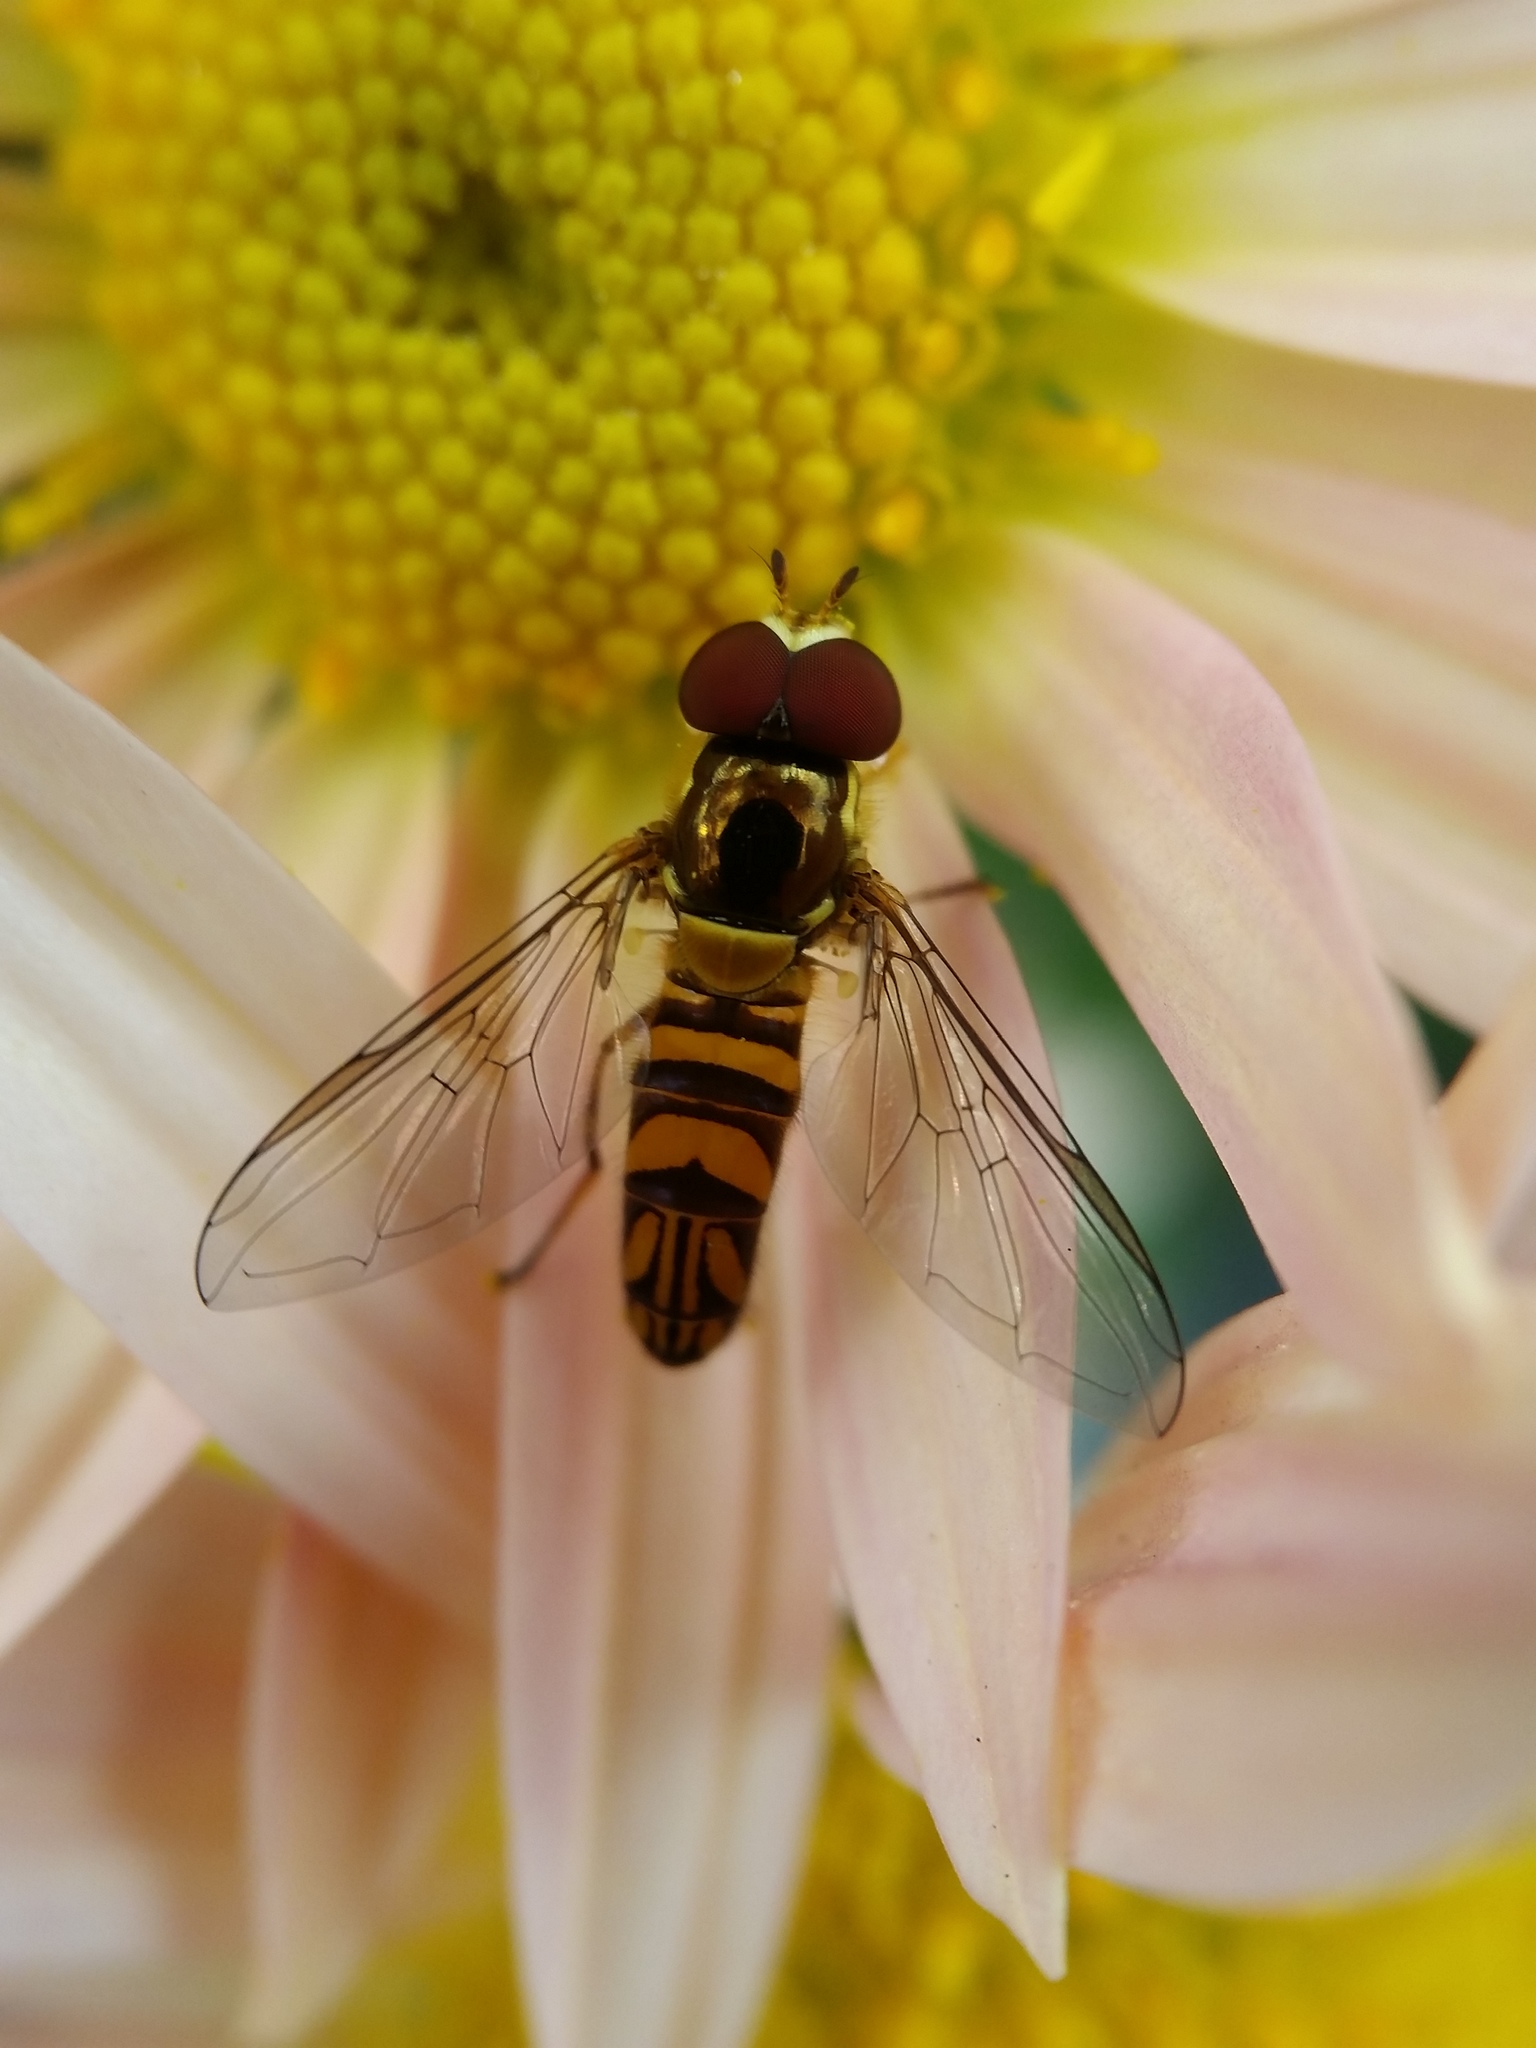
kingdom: Animalia
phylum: Arthropoda
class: Insecta
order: Diptera
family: Syrphidae
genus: Allograpta
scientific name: Allograpta obliqua
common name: Common oblique syrphid
